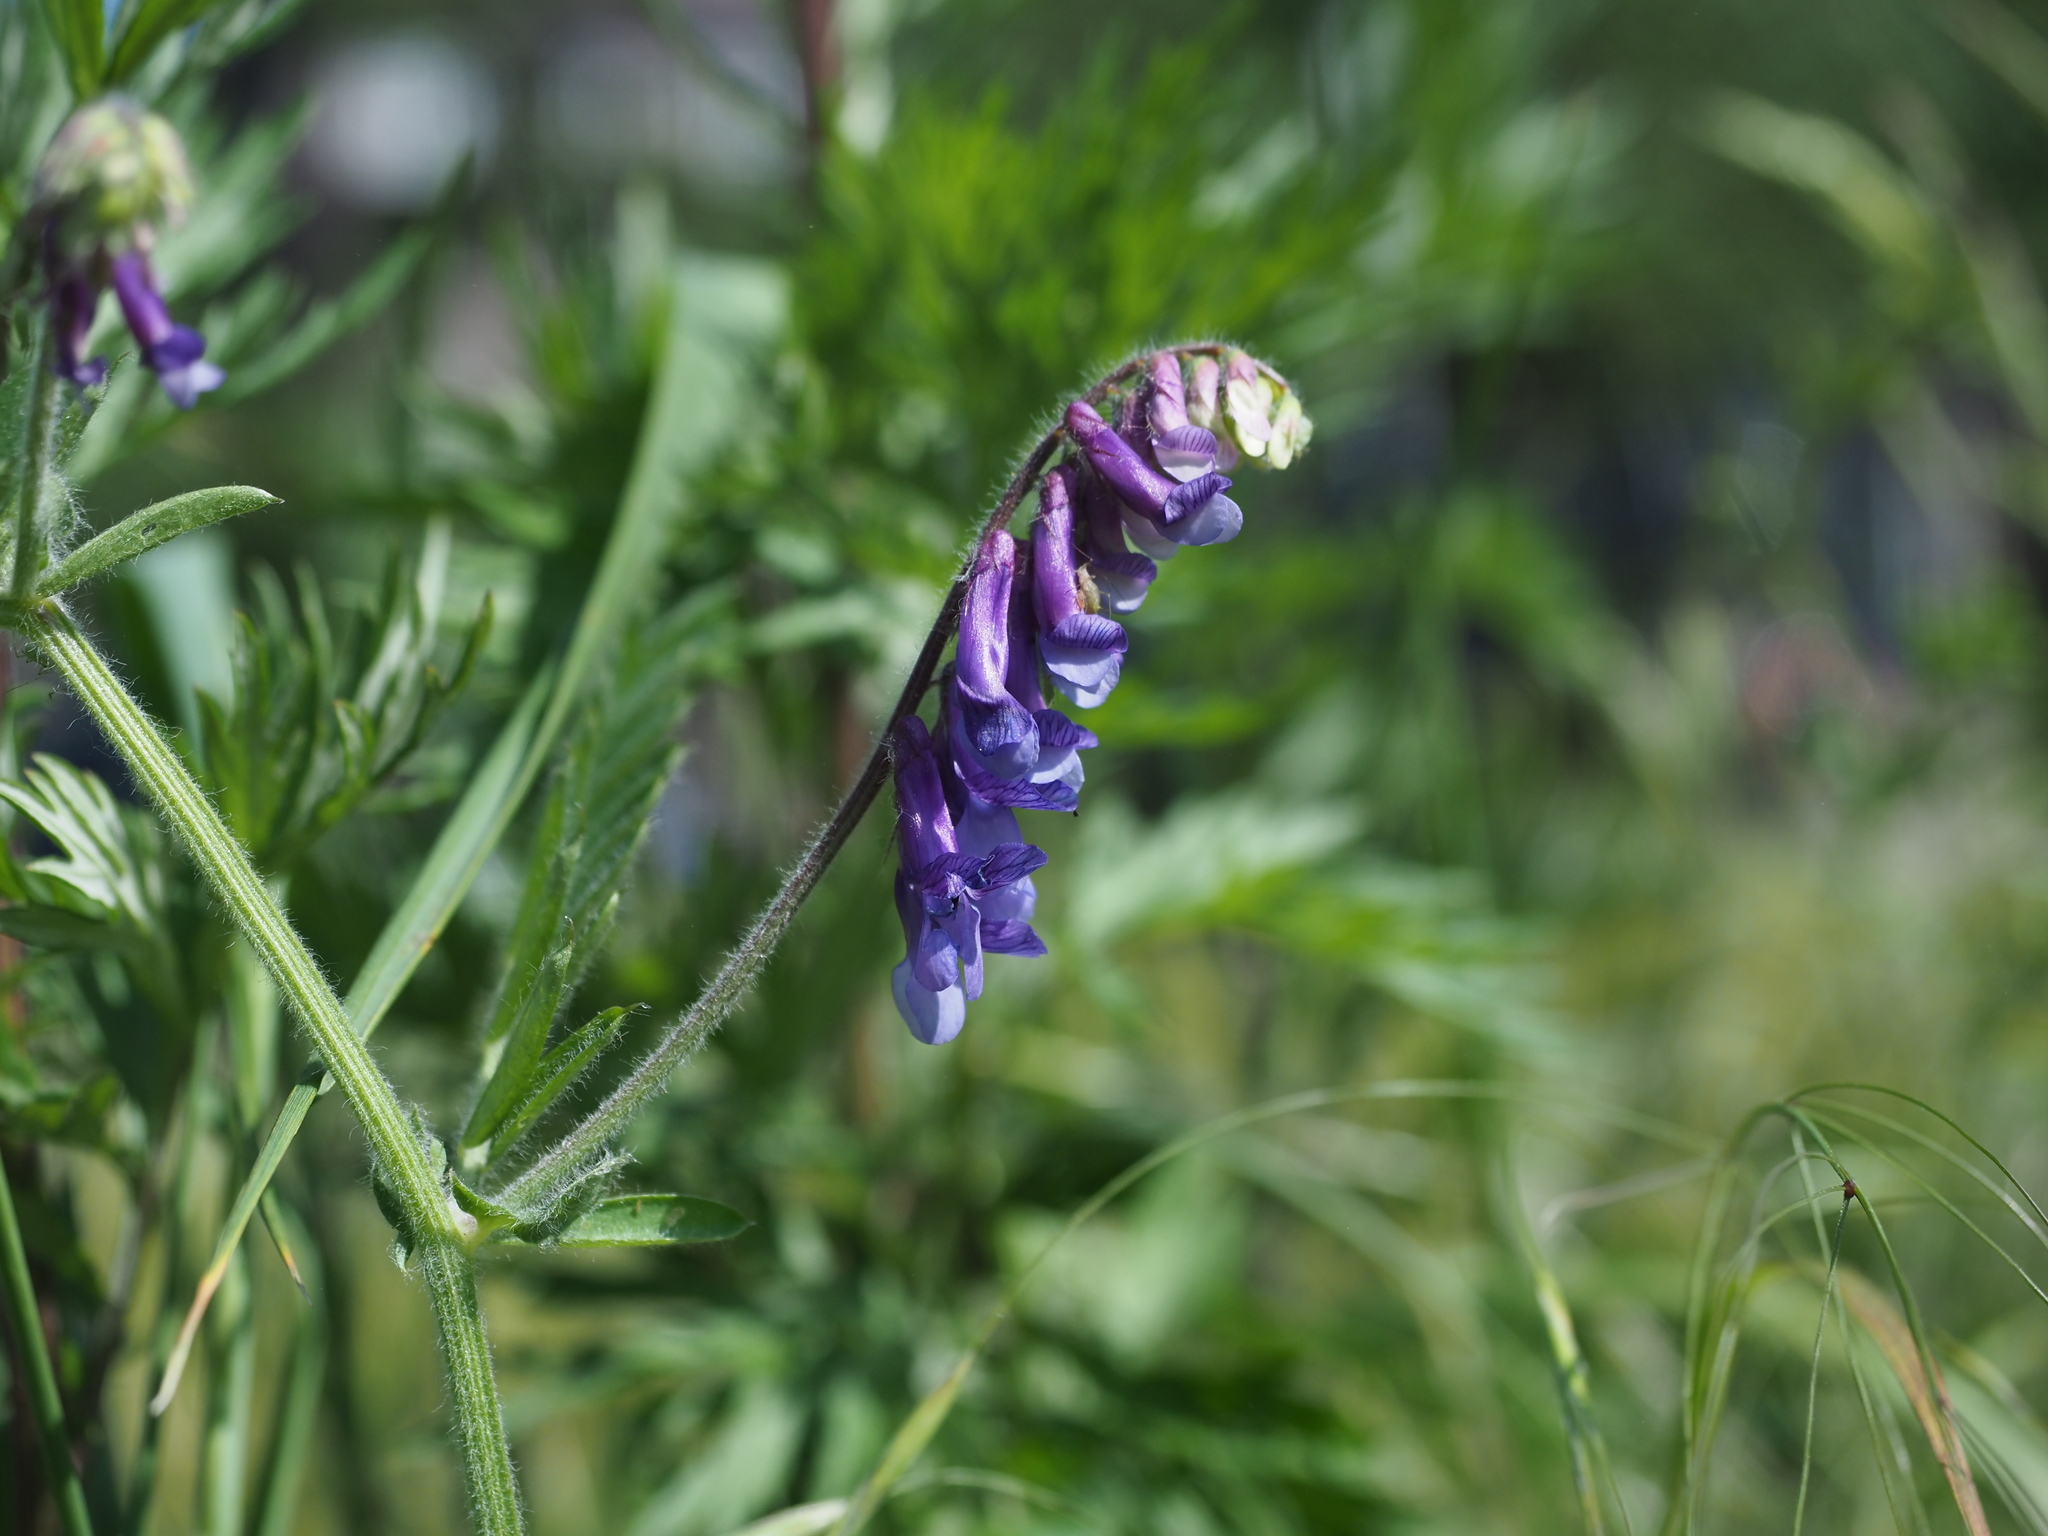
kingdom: Plantae
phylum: Tracheophyta
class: Magnoliopsida
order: Fabales
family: Fabaceae
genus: Vicia
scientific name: Vicia villosa
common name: Fodder vetch
